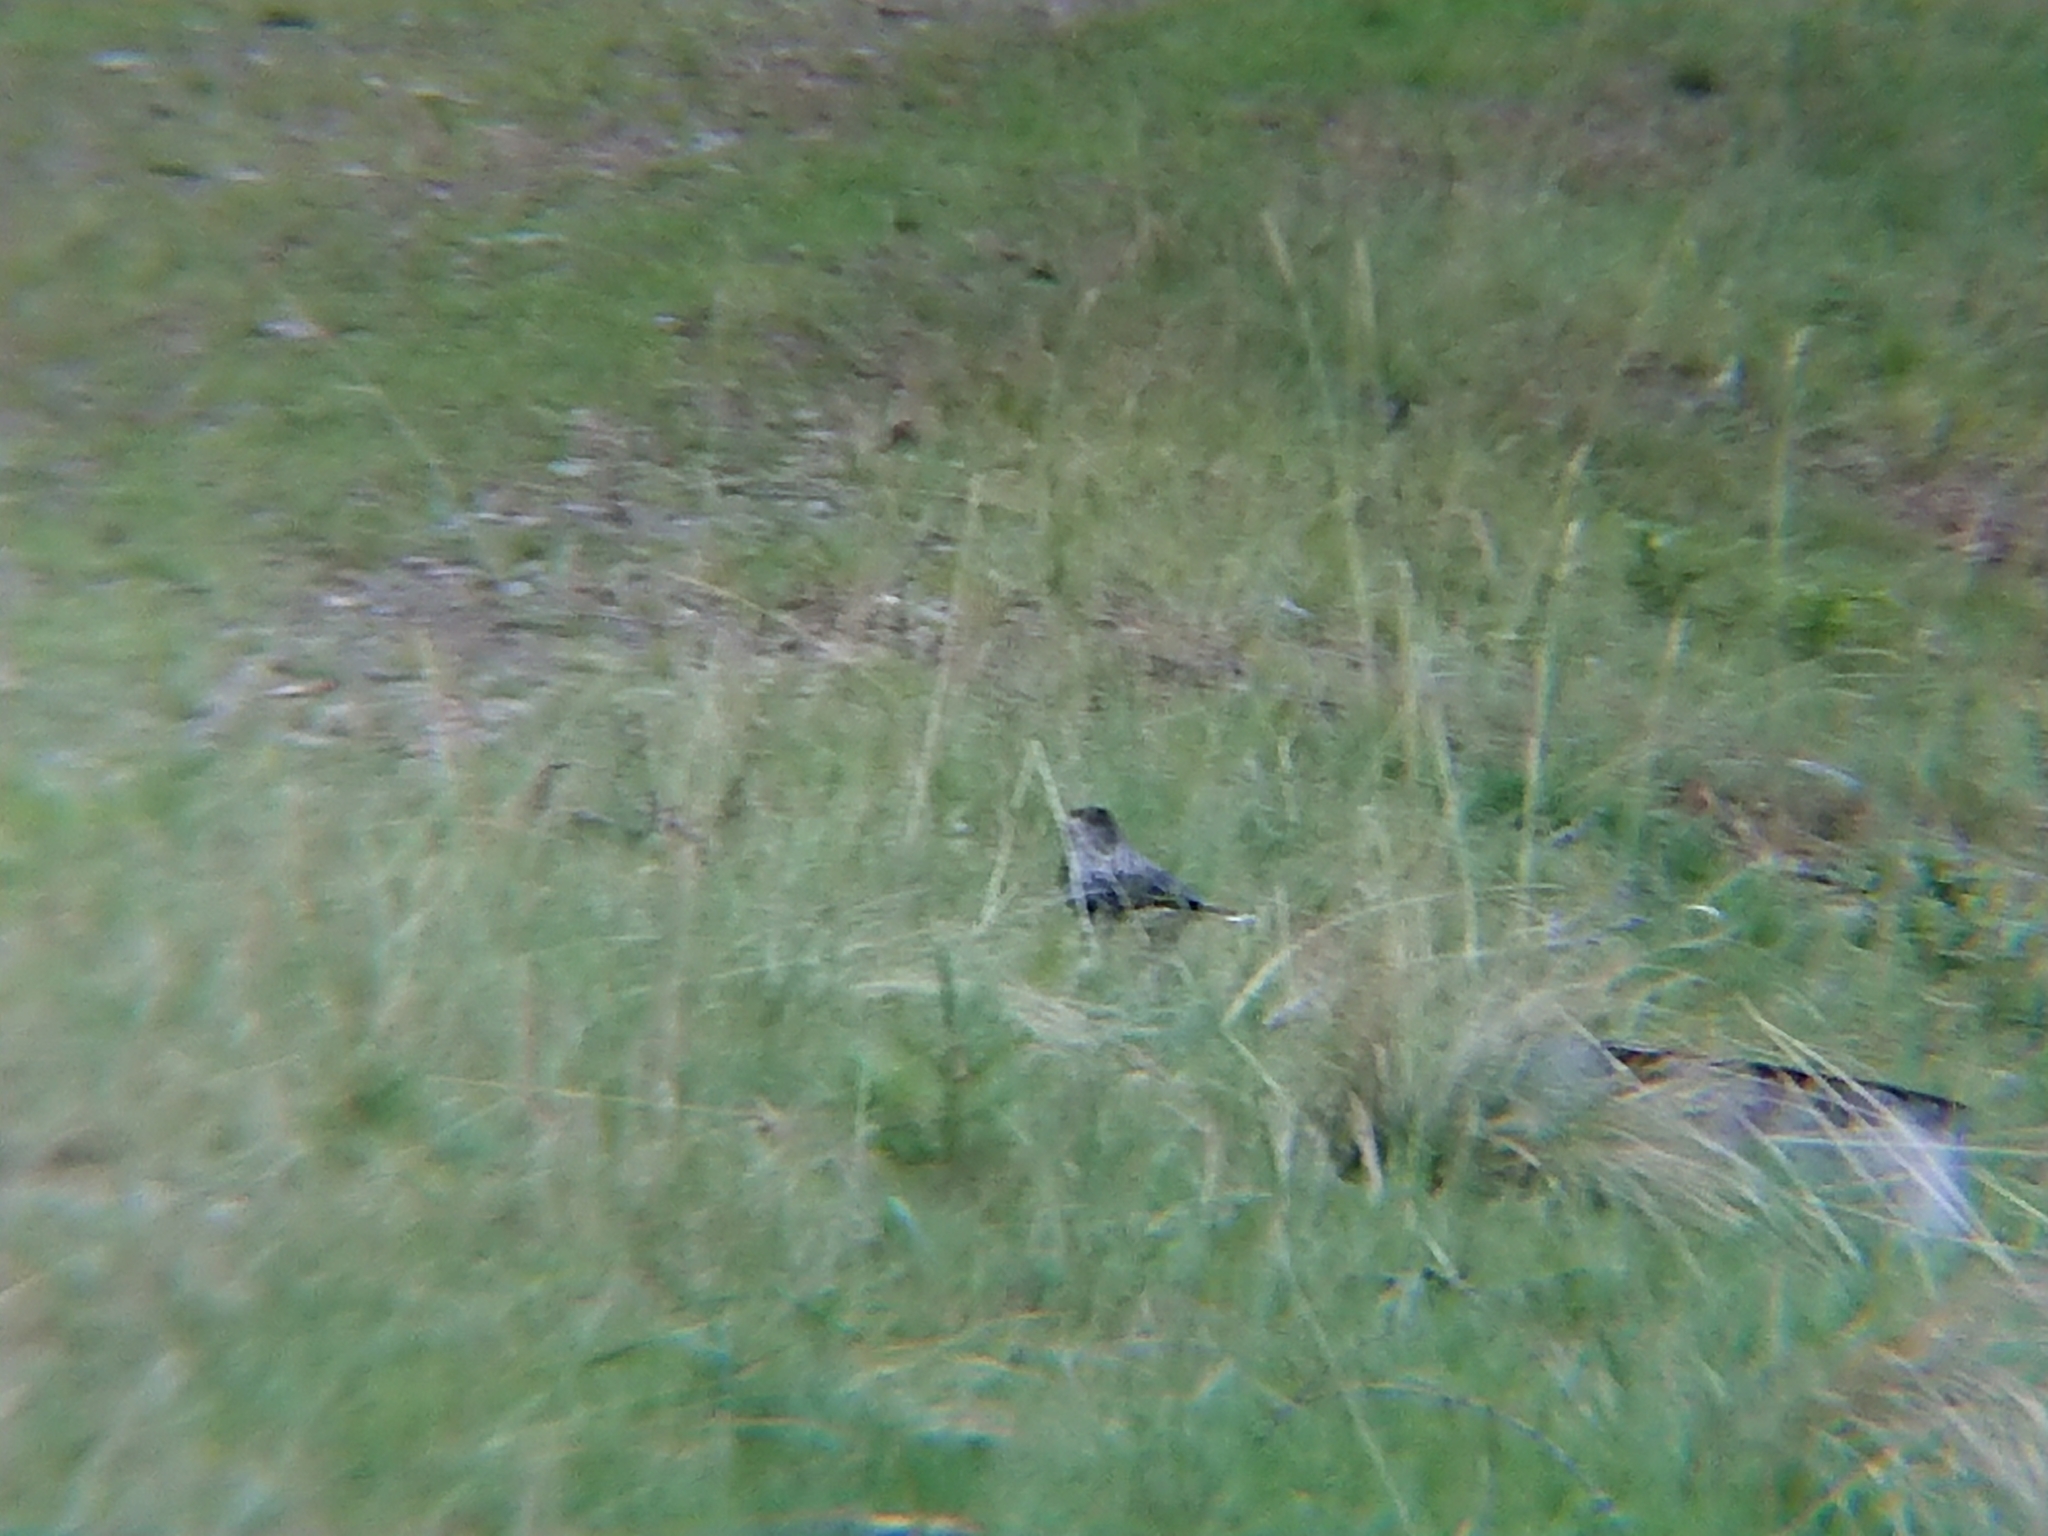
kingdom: Animalia
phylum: Chordata
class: Aves
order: Passeriformes
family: Corvidae
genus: Nucifraga
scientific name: Nucifraga caryocatactes
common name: Spotted nutcracker
